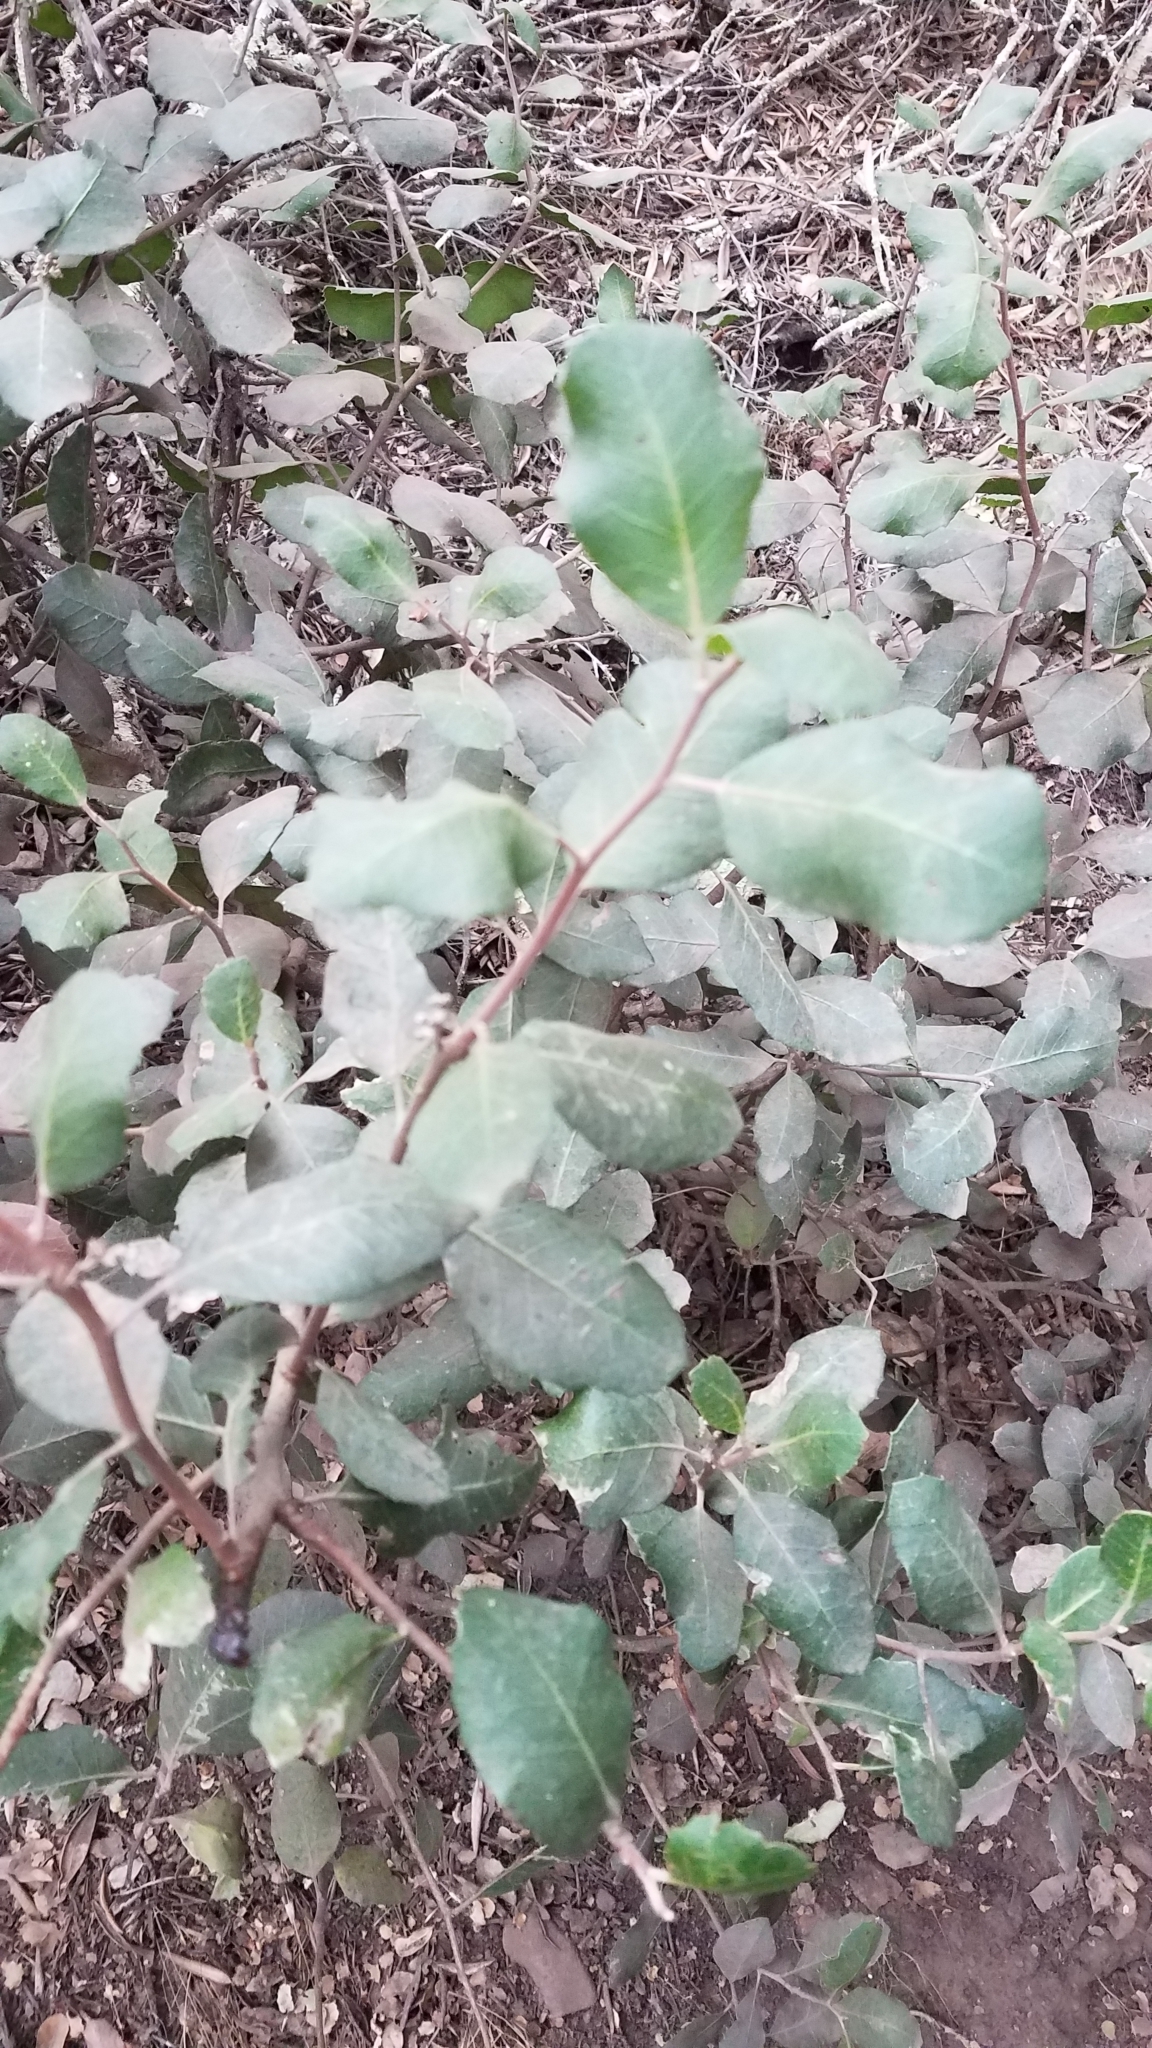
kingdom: Plantae
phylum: Tracheophyta
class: Magnoliopsida
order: Sapindales
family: Anacardiaceae
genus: Rhus
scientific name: Rhus integrifolia
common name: Lemonade sumac
